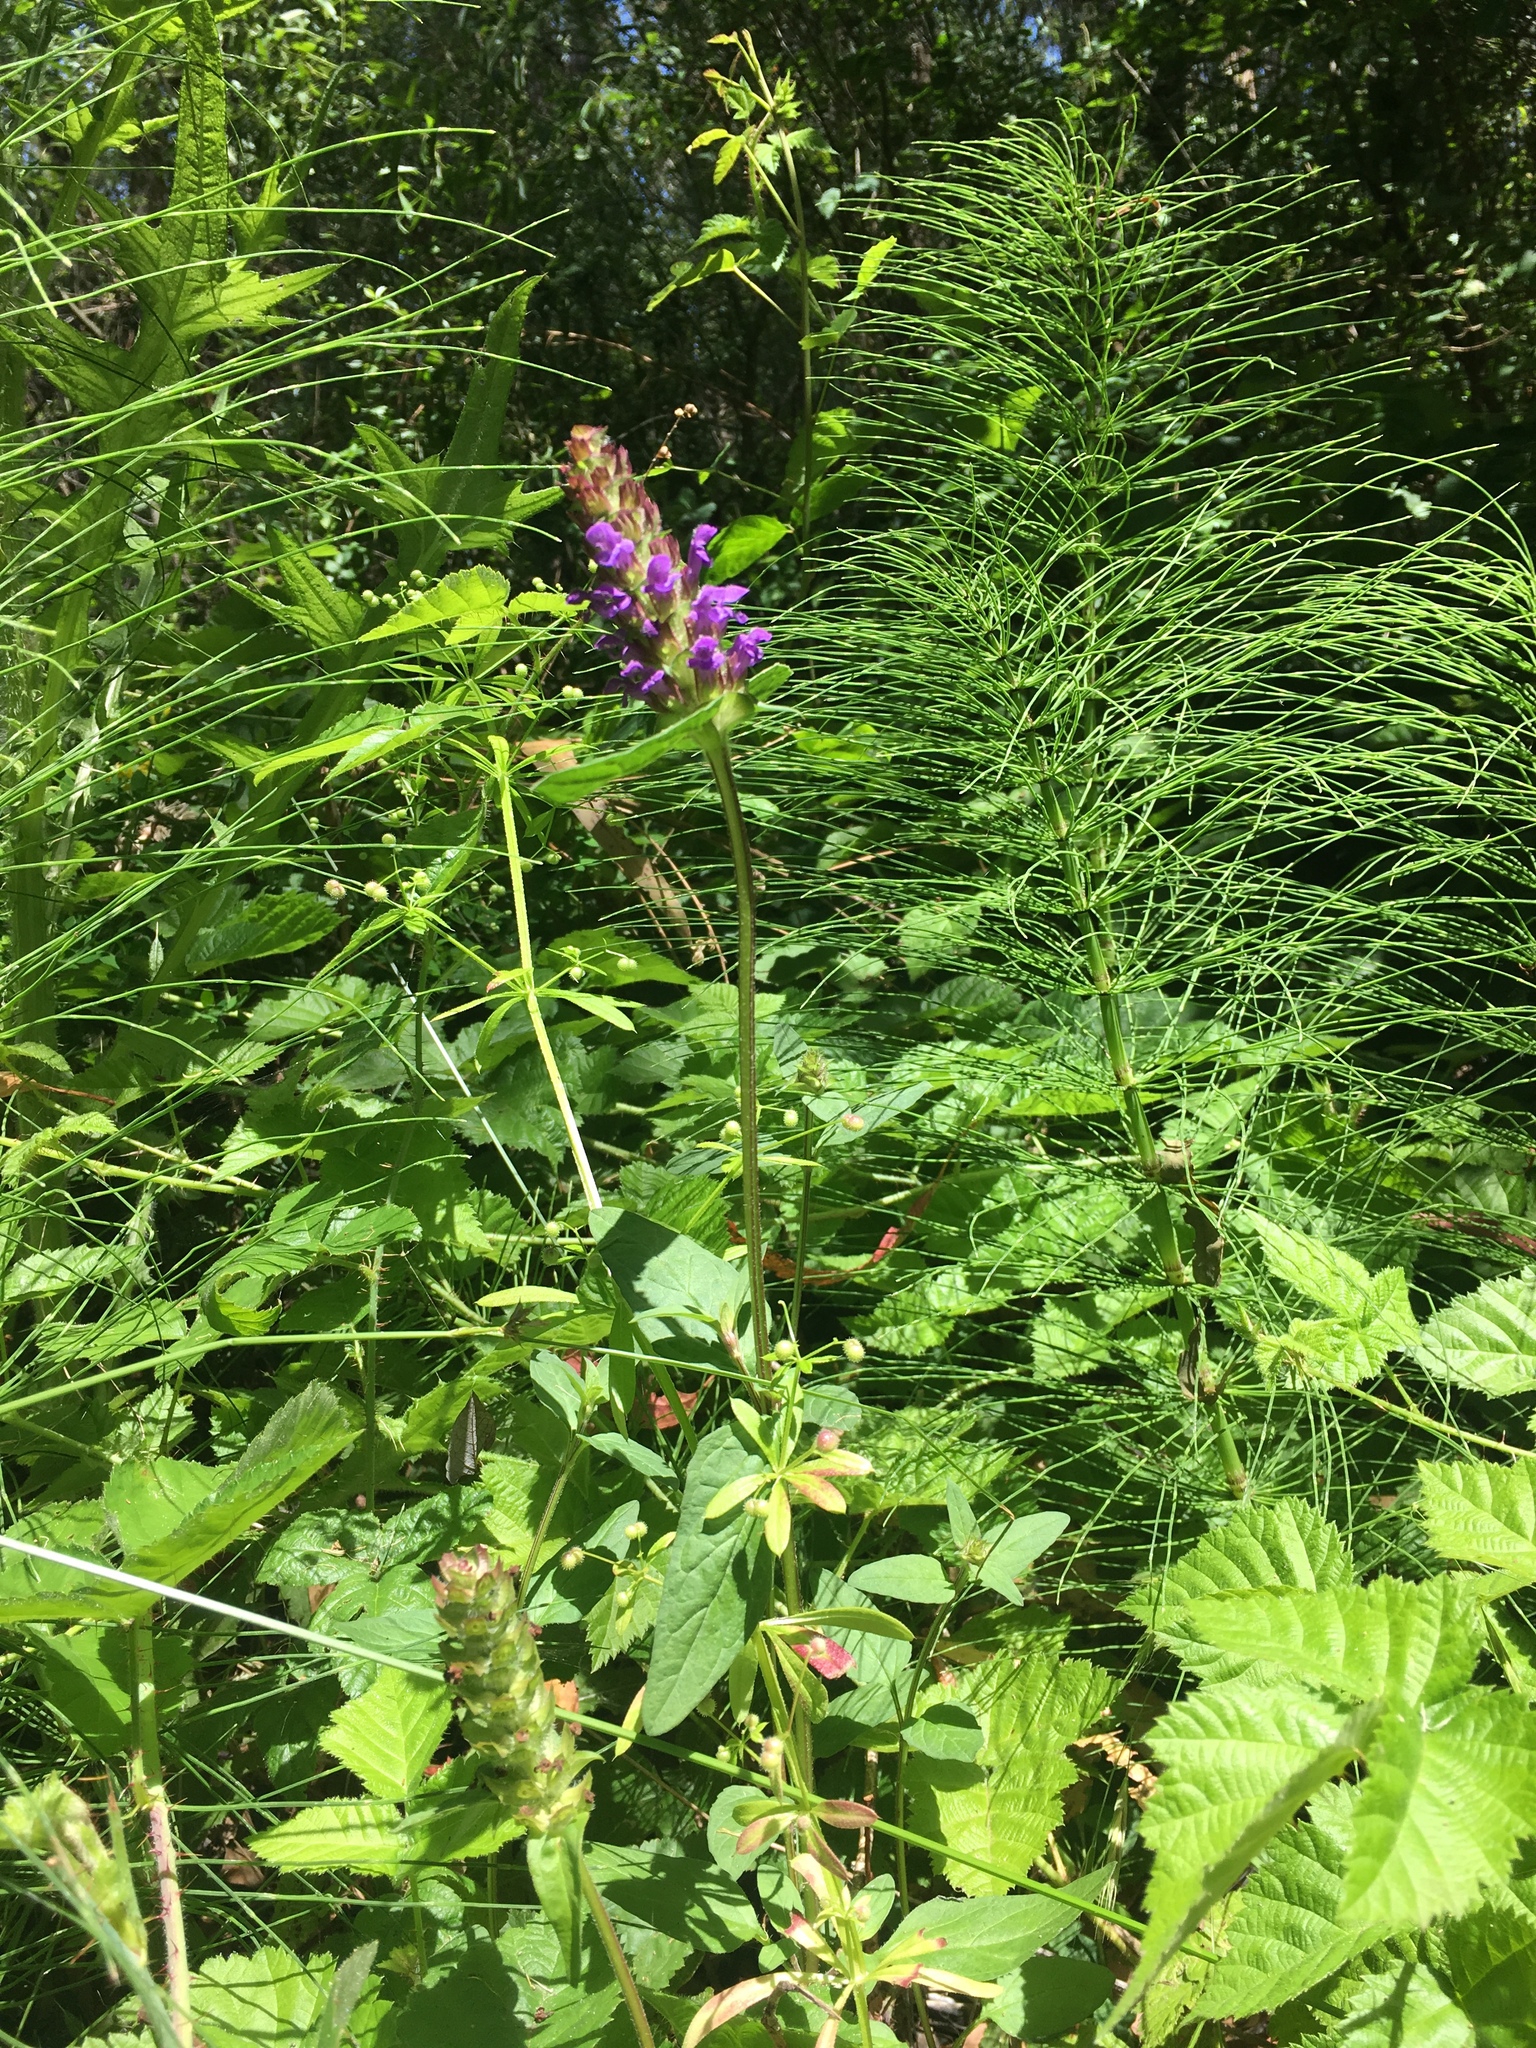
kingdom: Plantae
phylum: Tracheophyta
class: Magnoliopsida
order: Lamiales
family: Lamiaceae
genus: Prunella
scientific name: Prunella vulgaris
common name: Heal-all
